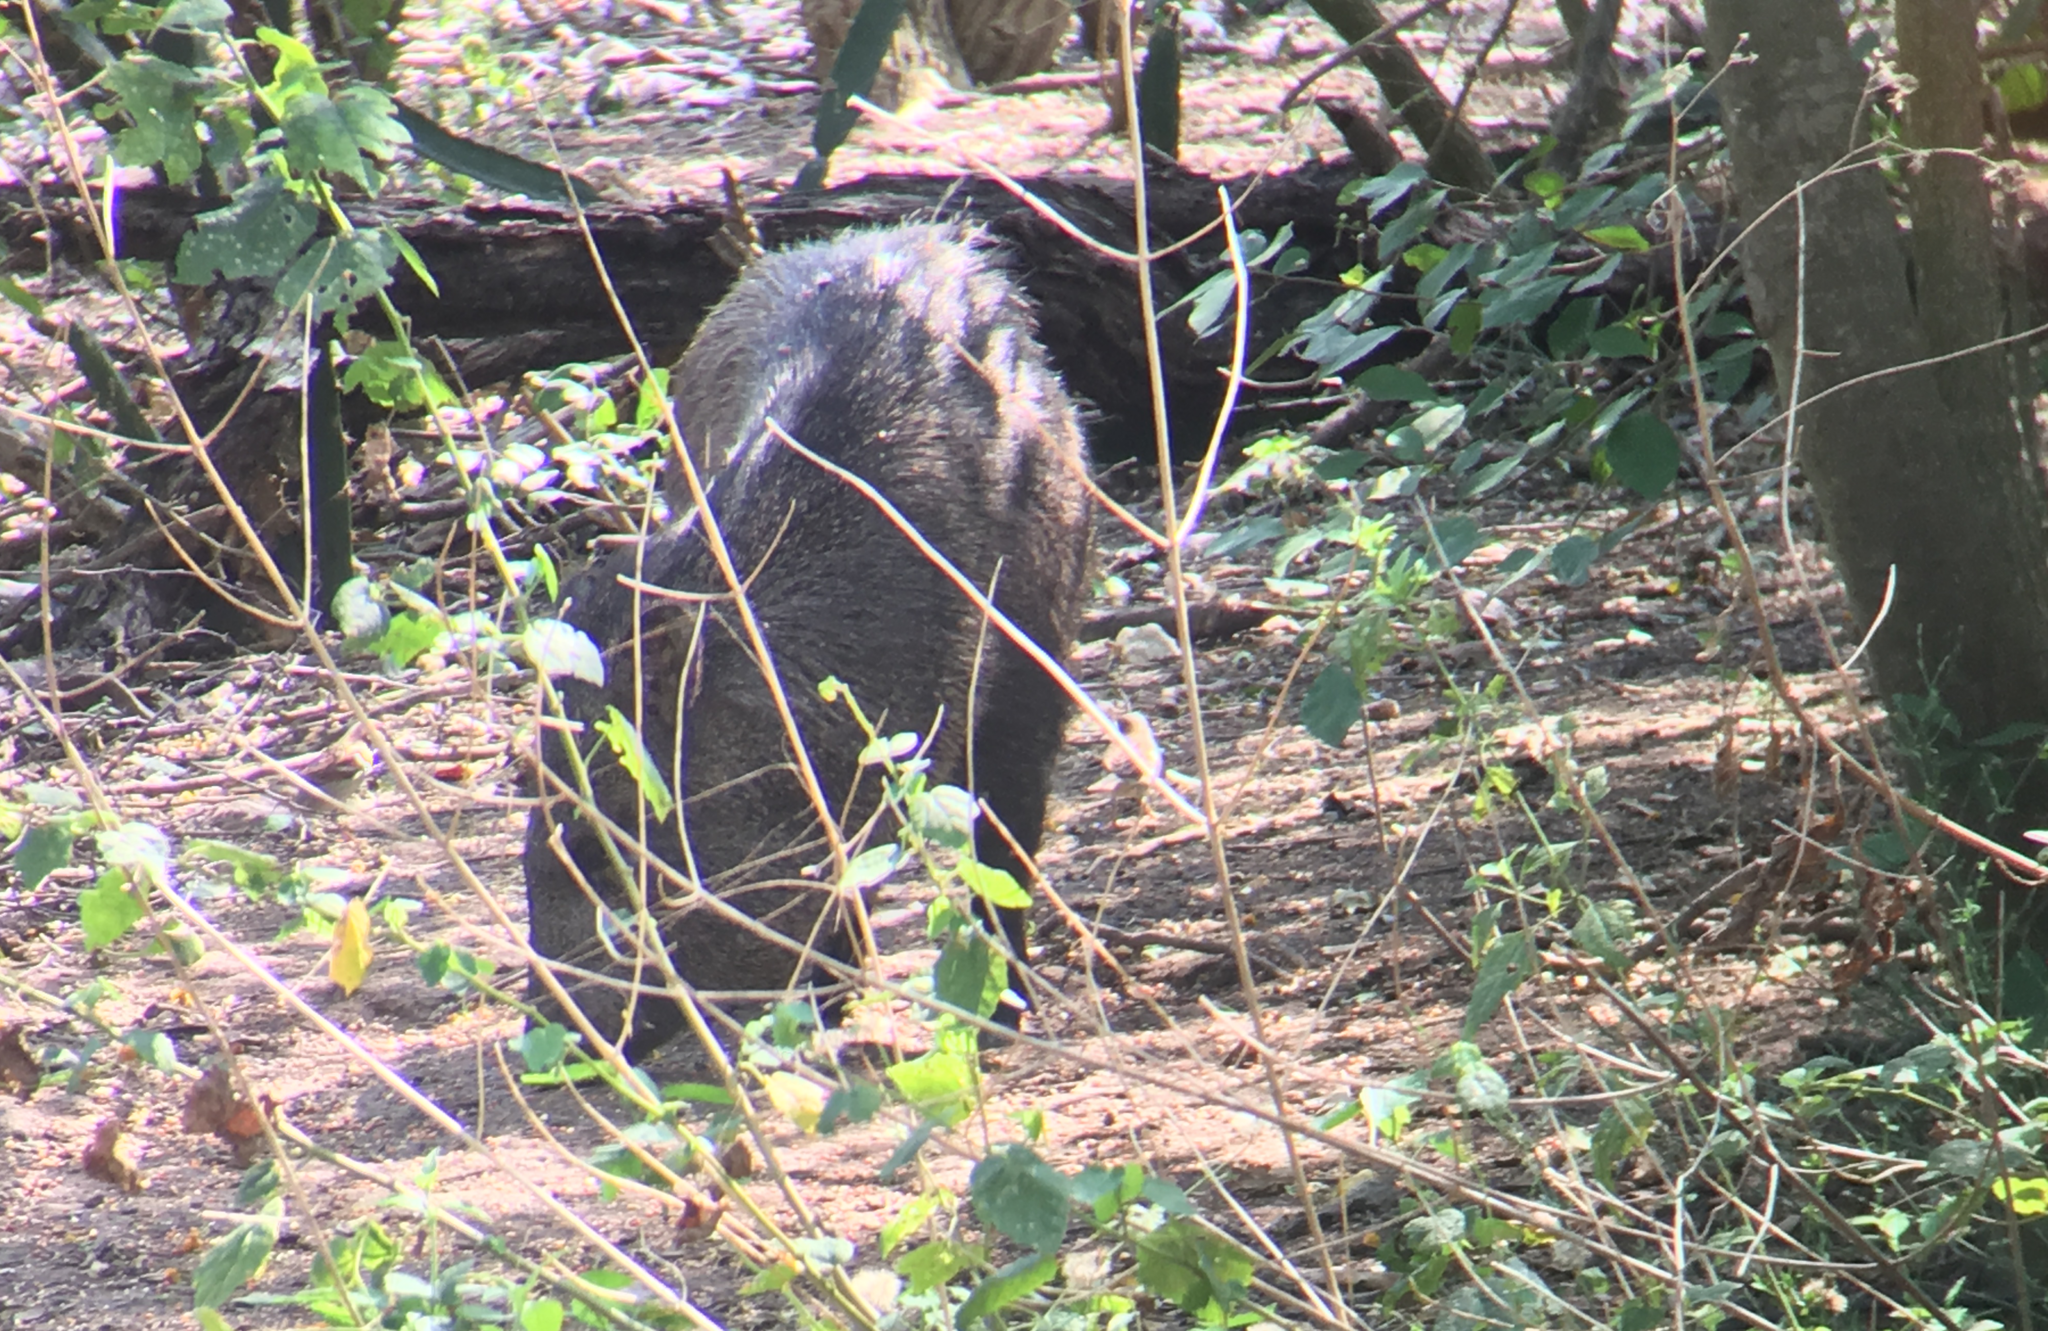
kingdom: Animalia
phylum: Chordata
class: Mammalia
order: Artiodactyla
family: Tayassuidae
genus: Pecari
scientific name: Pecari tajacu
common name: Collared peccary
